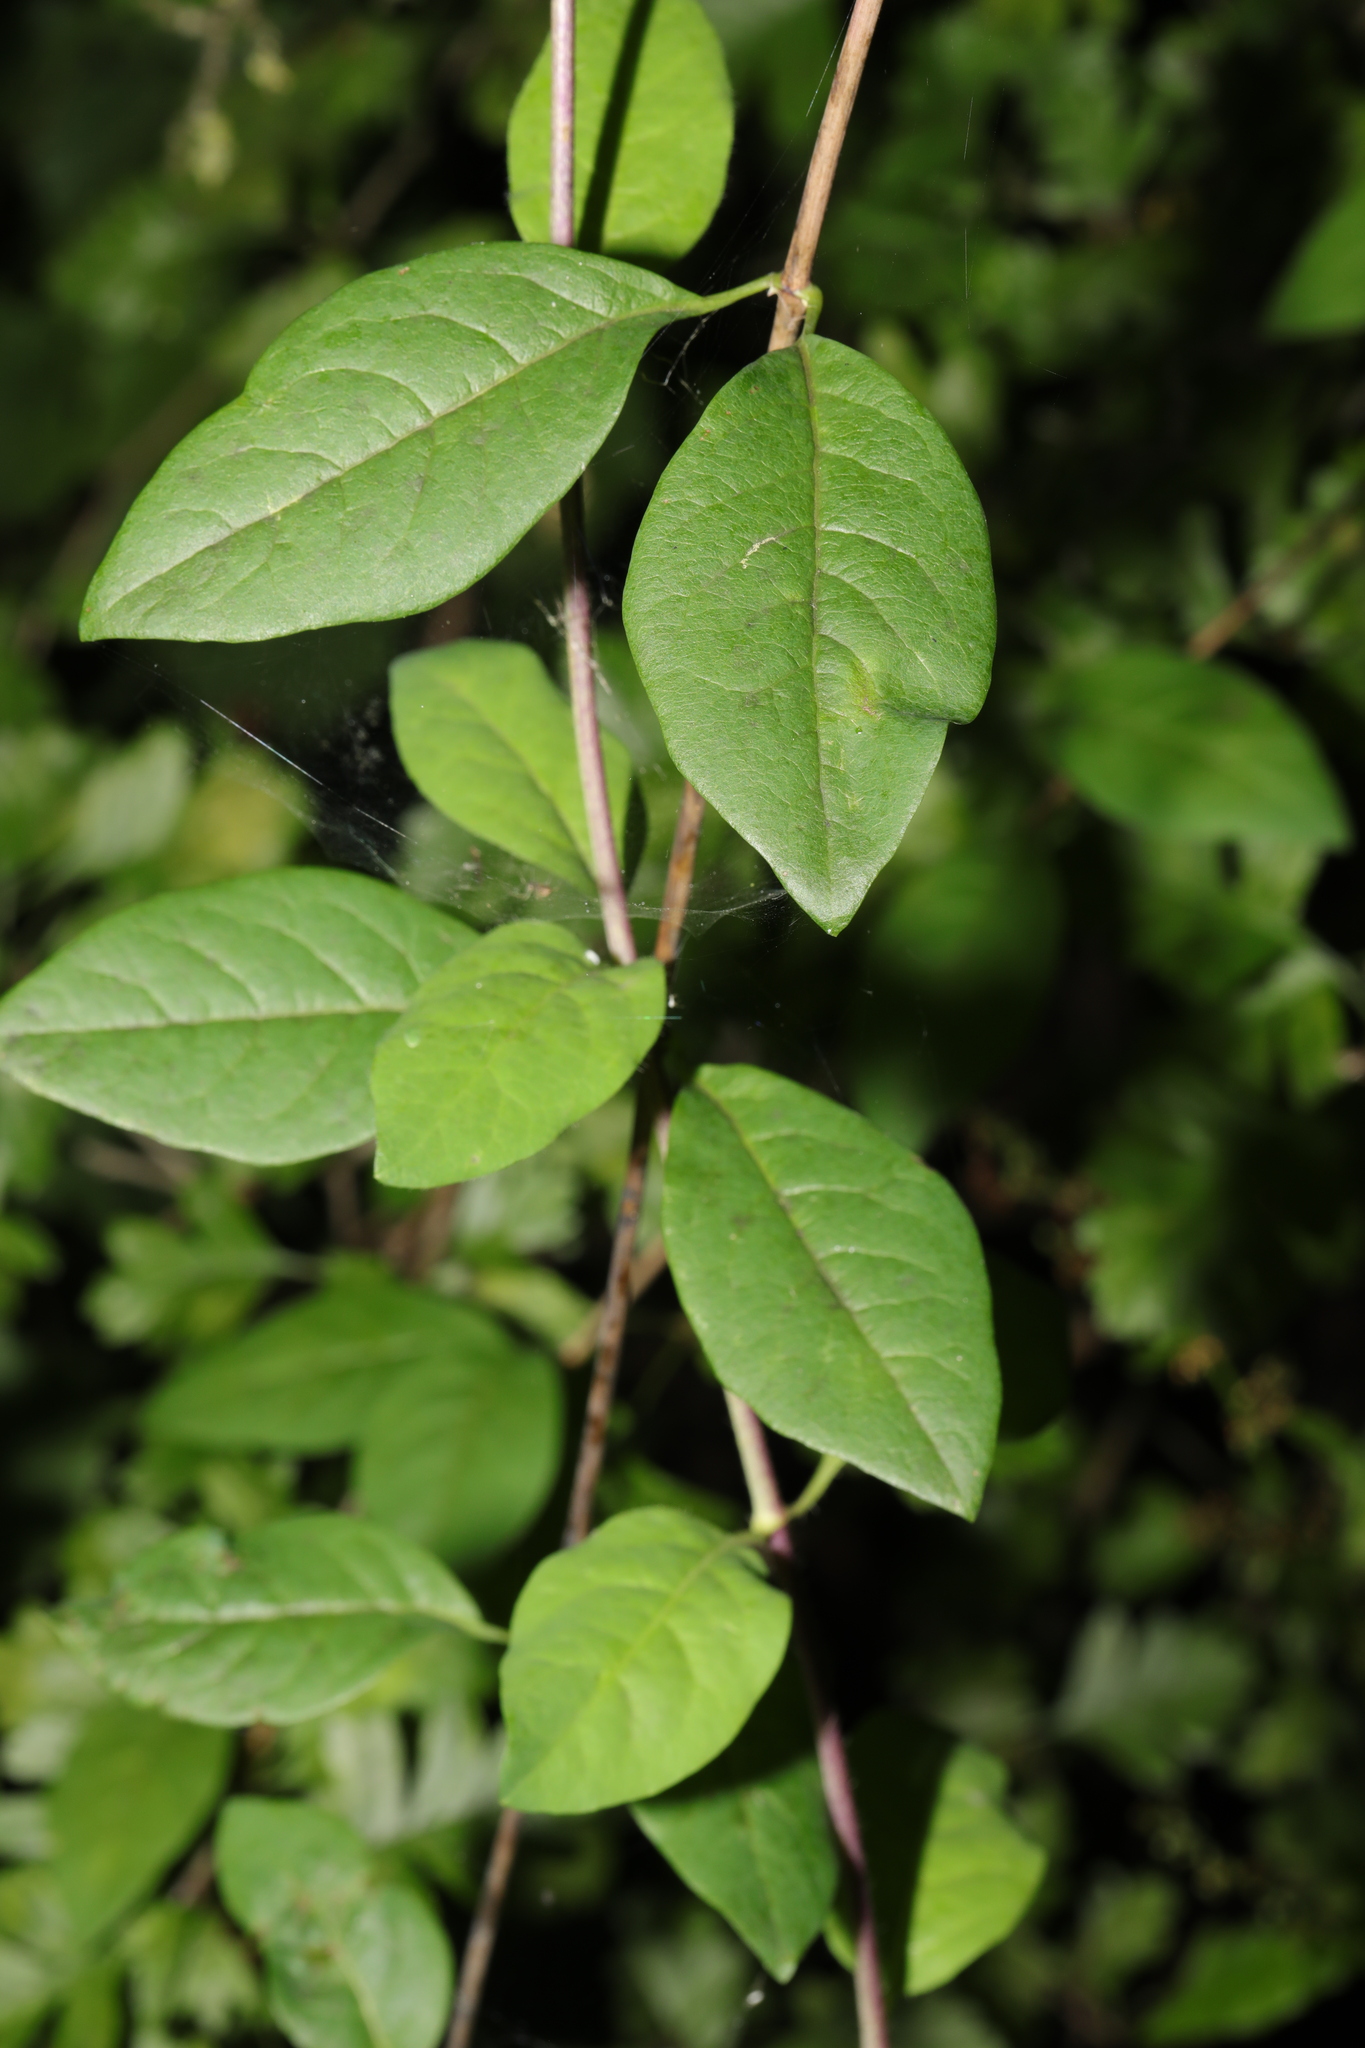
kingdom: Plantae
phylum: Tracheophyta
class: Magnoliopsida
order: Dipsacales
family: Caprifoliaceae
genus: Lonicera
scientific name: Lonicera periclymenum
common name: European honeysuckle
